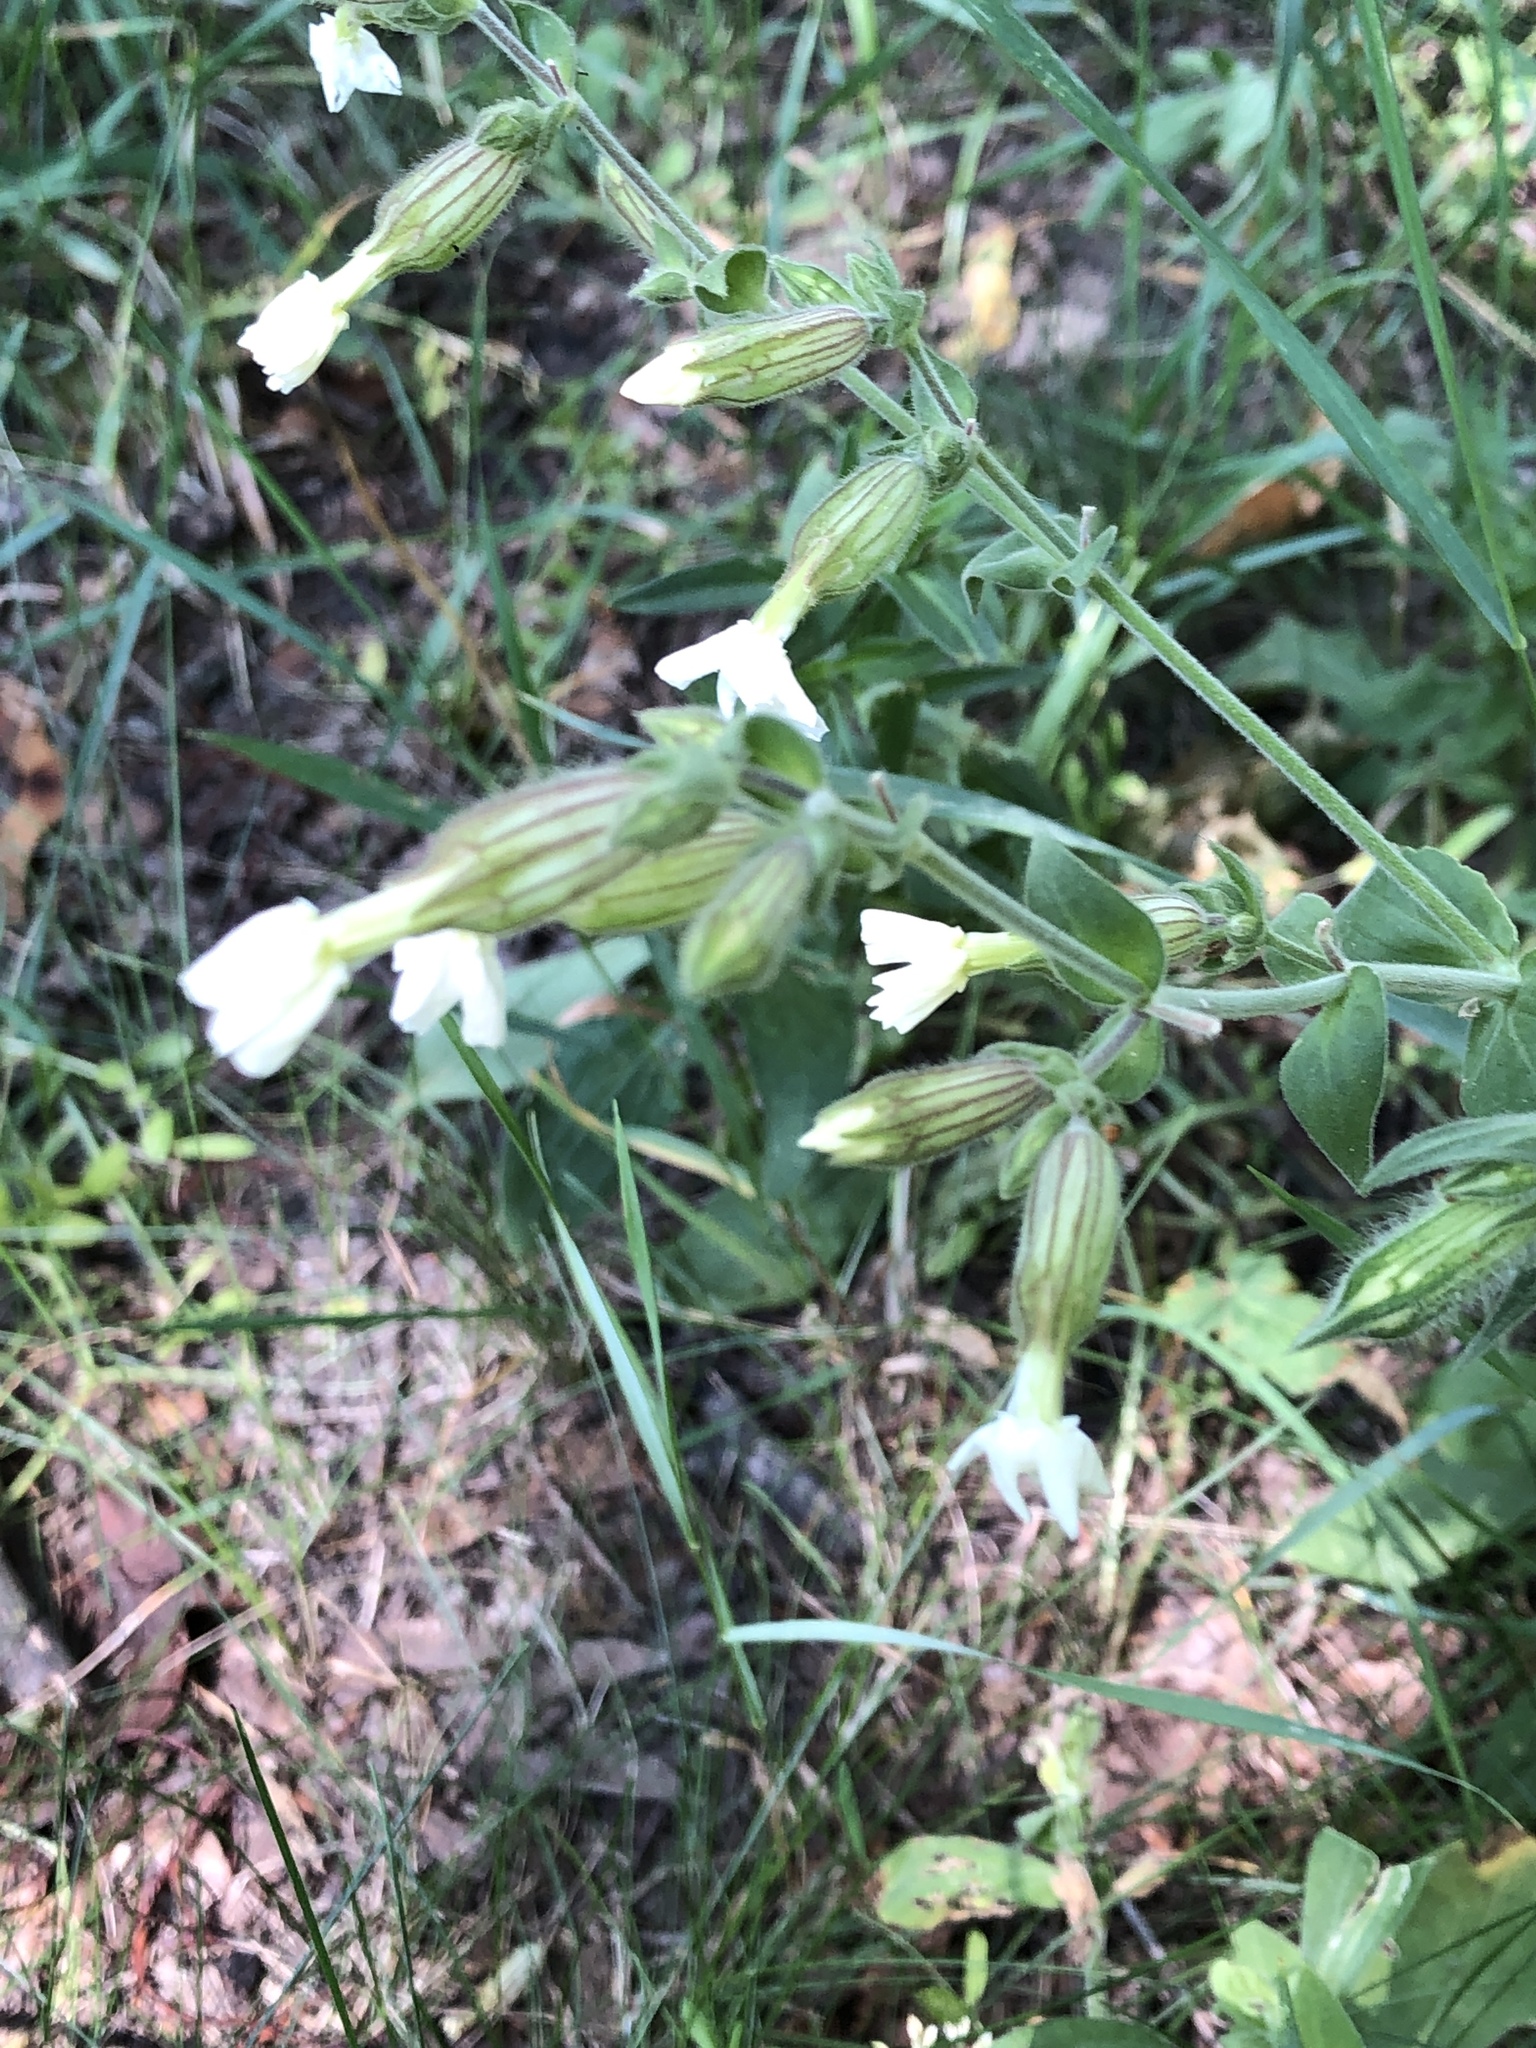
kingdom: Plantae
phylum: Tracheophyta
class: Magnoliopsida
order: Caryophyllales
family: Caryophyllaceae
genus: Silene
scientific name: Silene latifolia
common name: White campion
